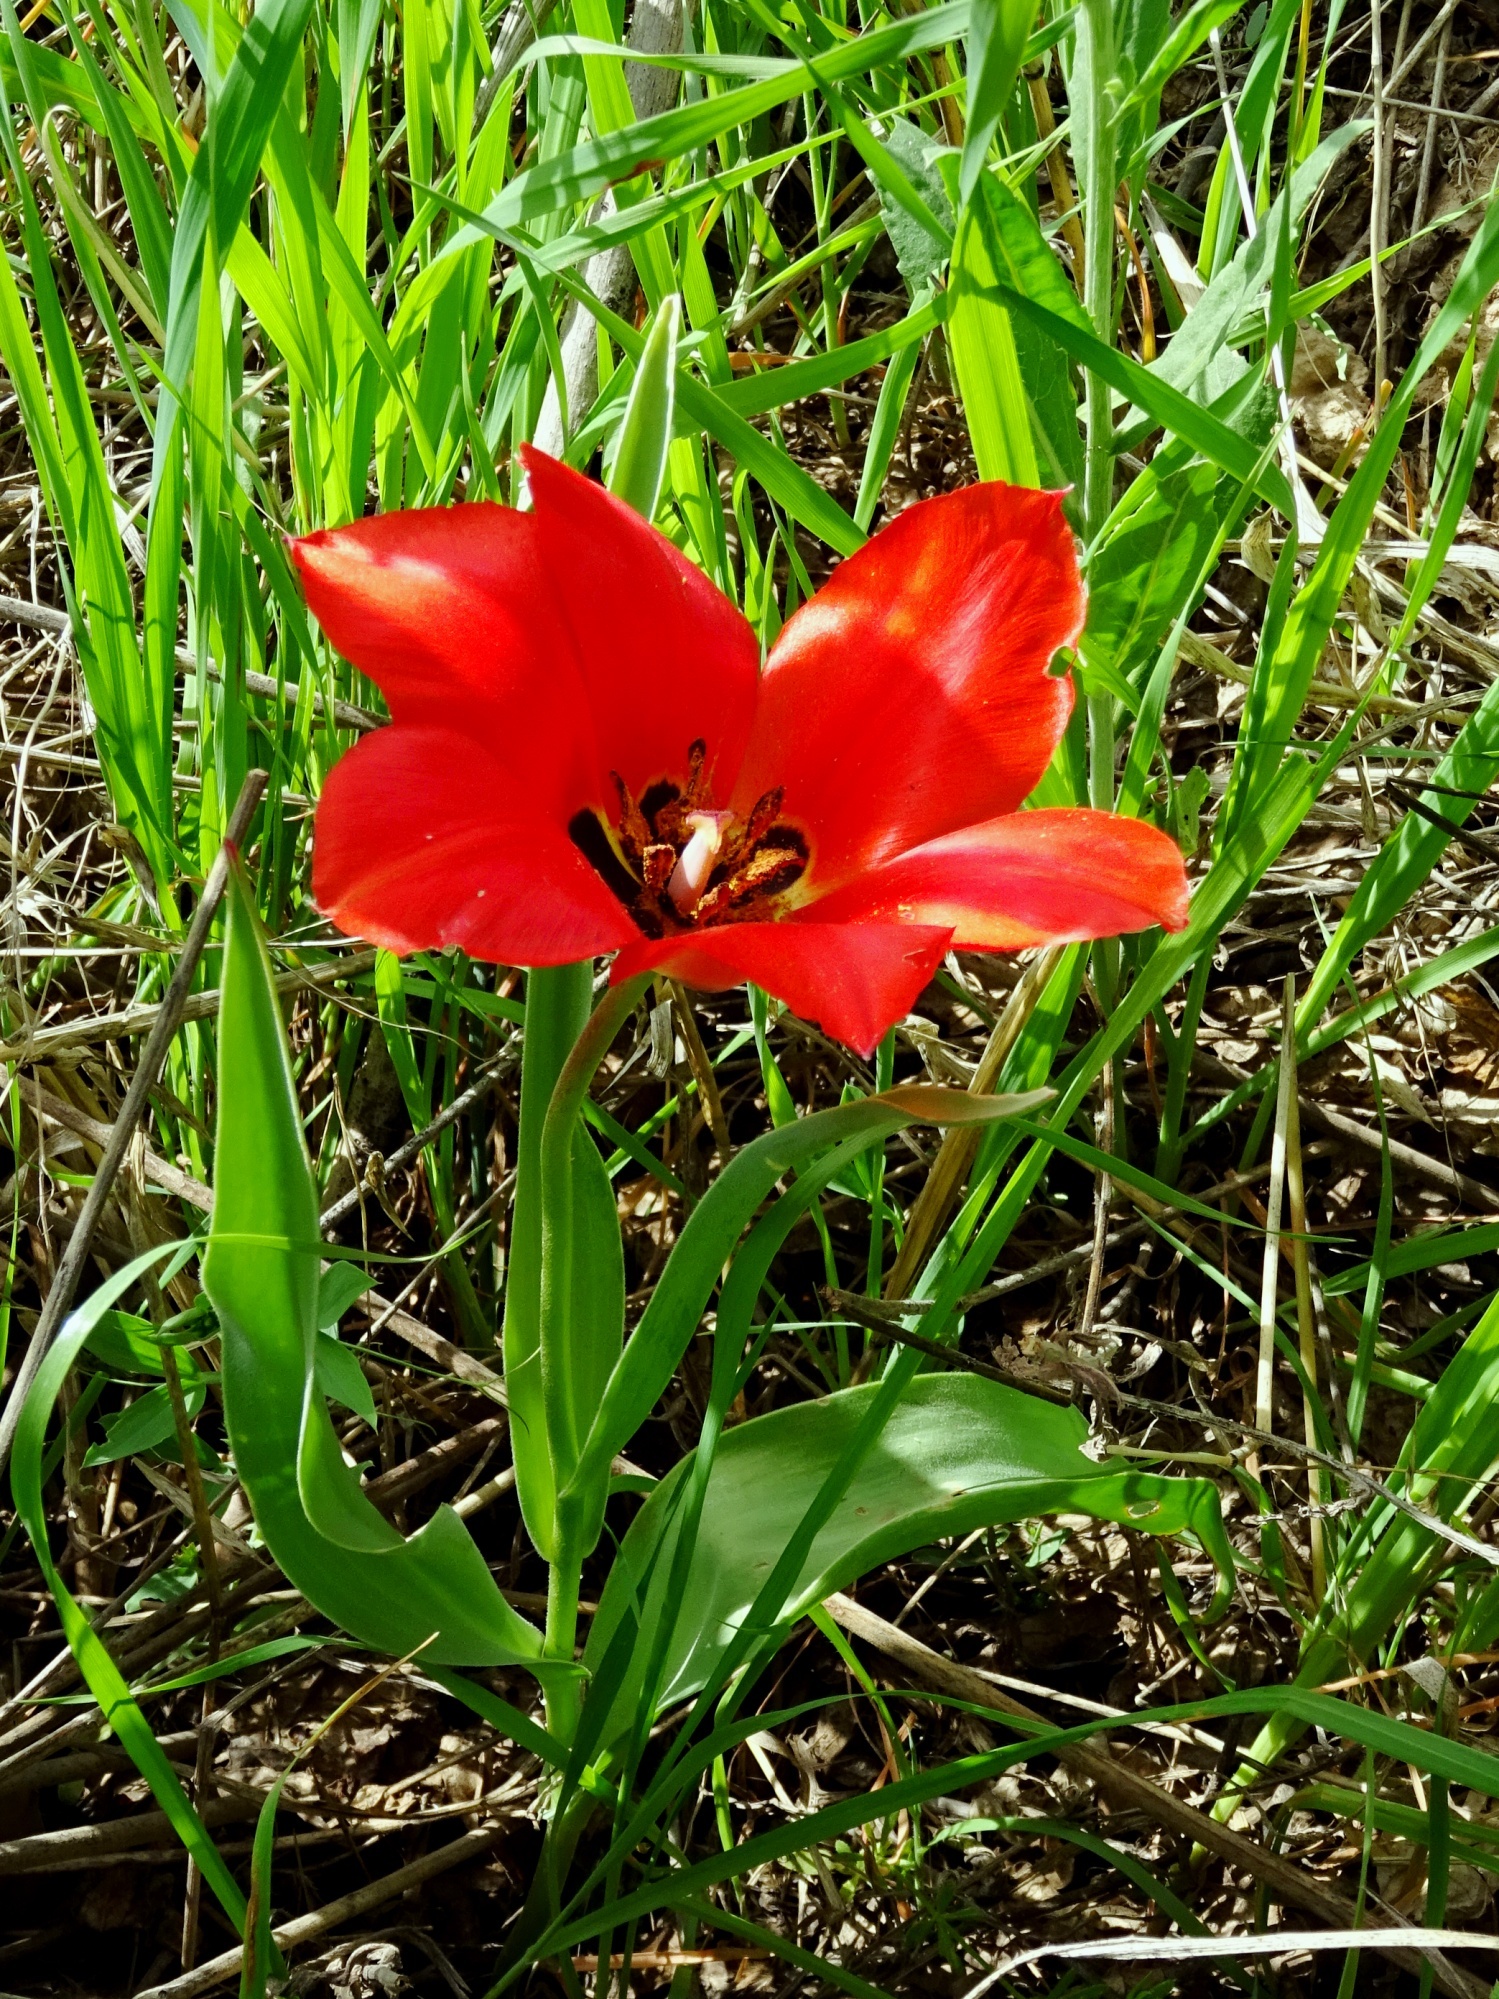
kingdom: Plantae
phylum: Tracheophyta
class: Liliopsida
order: Liliales
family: Liliaceae
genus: Tulipa
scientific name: Tulipa fosteriana
